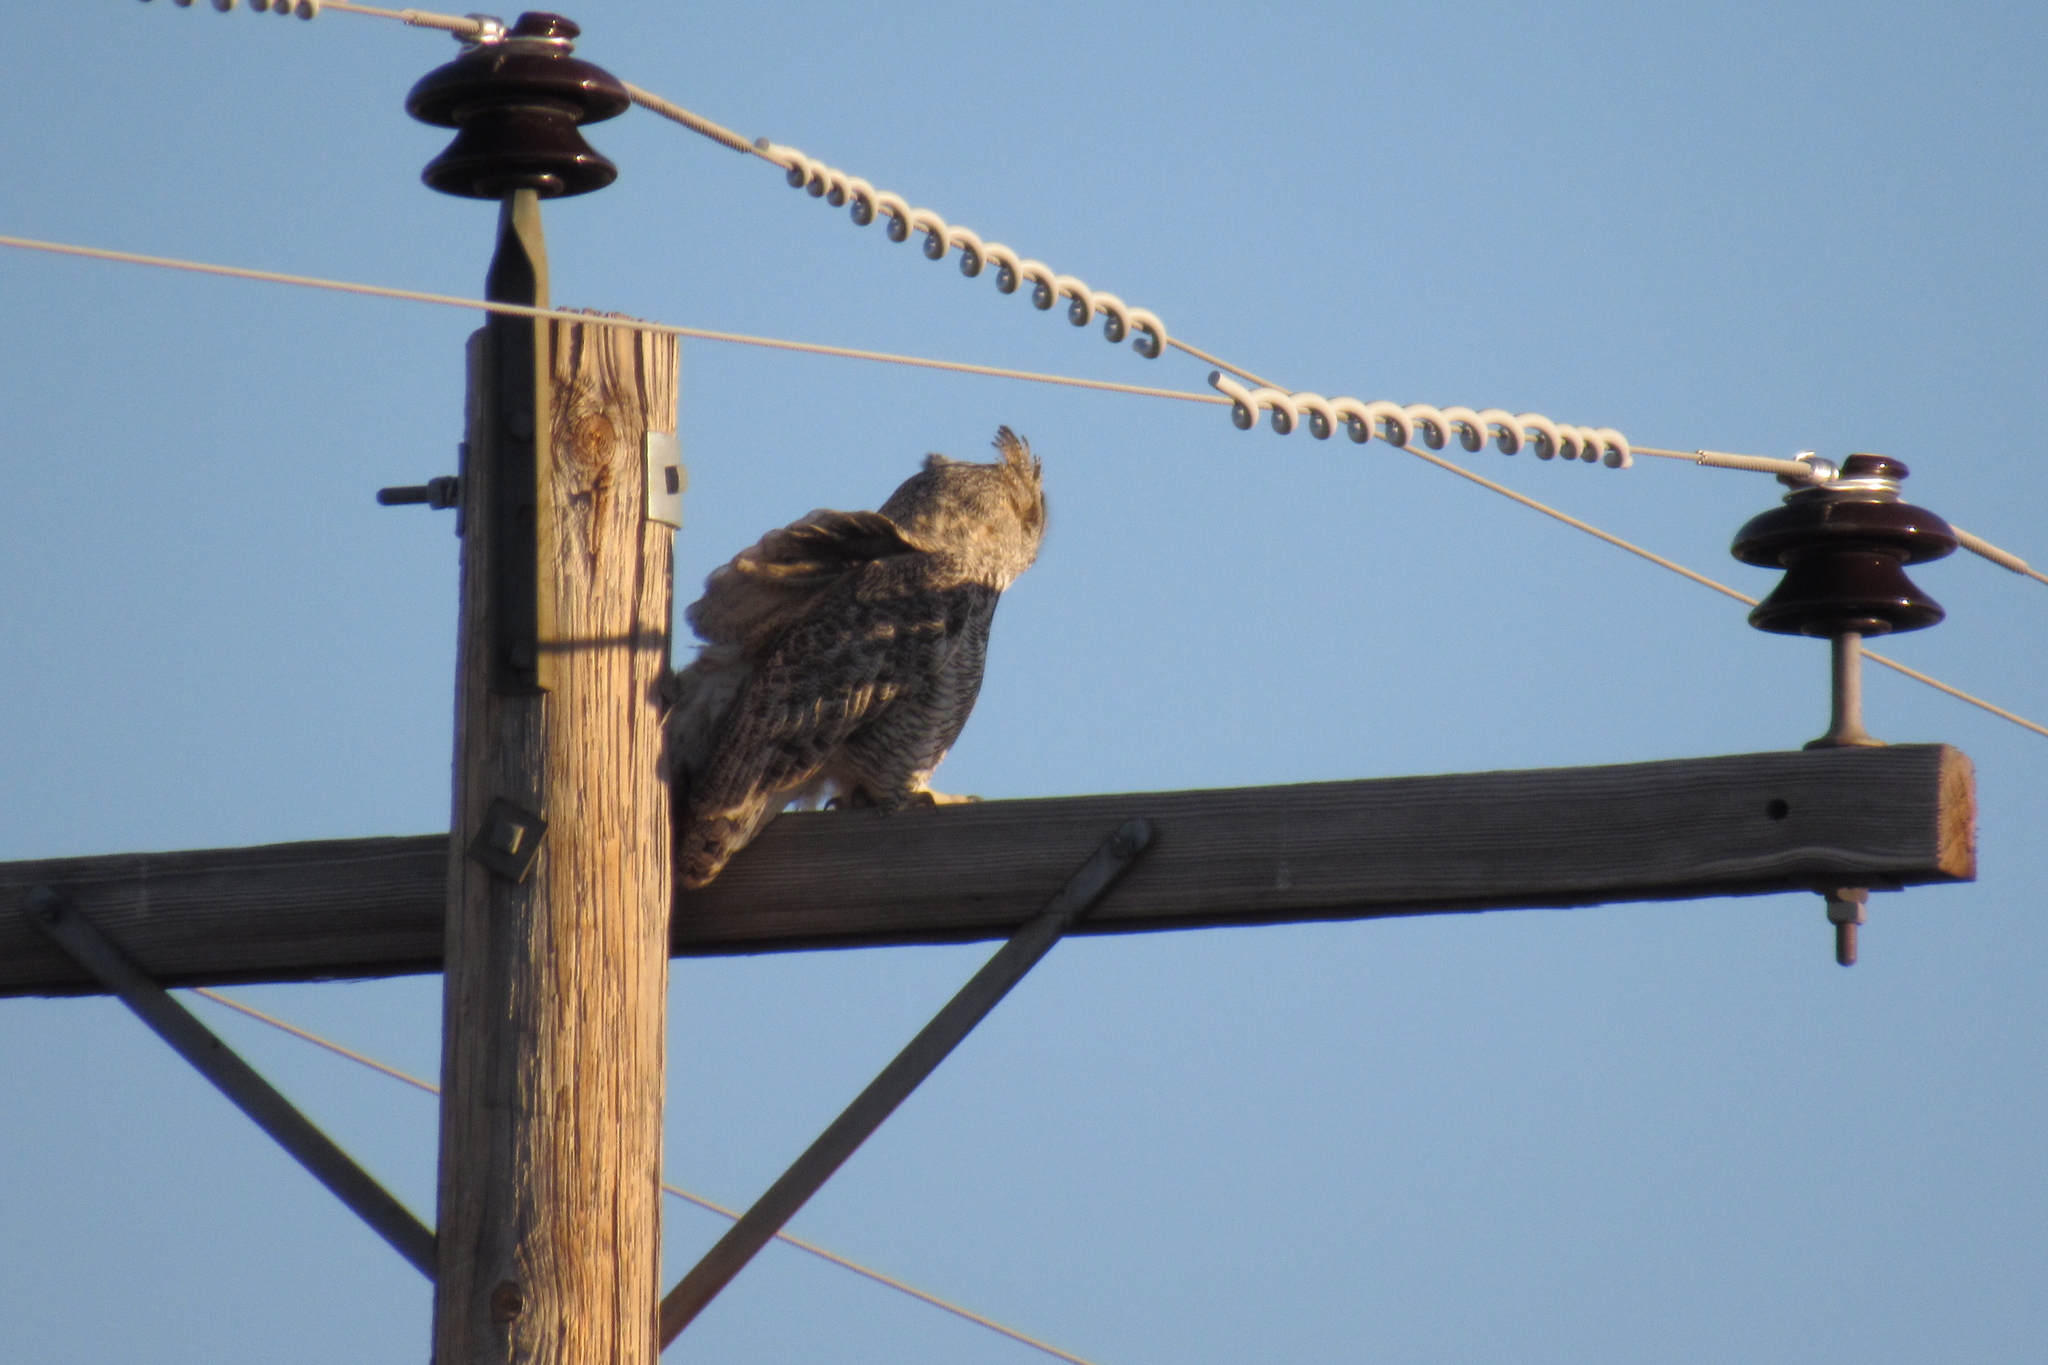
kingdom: Animalia
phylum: Chordata
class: Aves
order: Strigiformes
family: Strigidae
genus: Bubo
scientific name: Bubo virginianus
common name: Great horned owl
